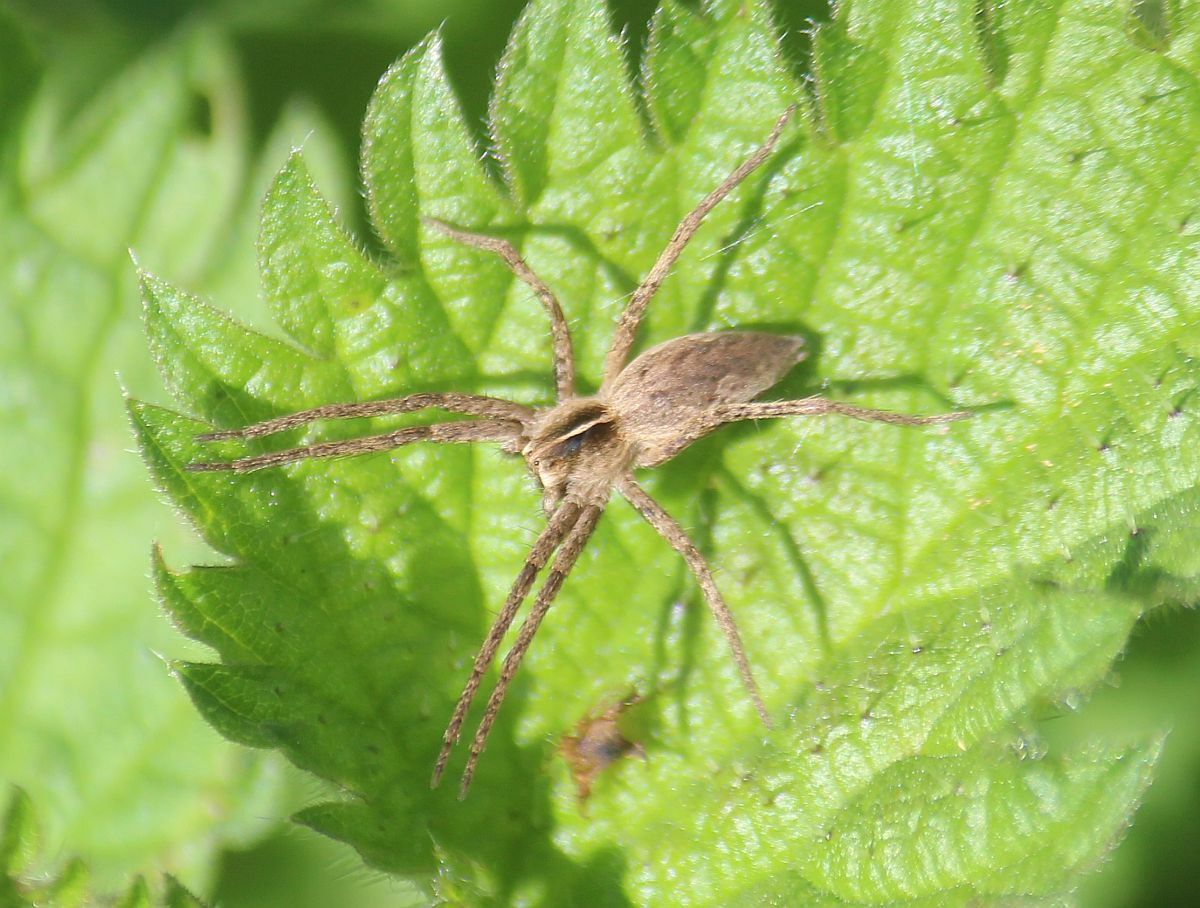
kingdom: Animalia
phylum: Arthropoda
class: Arachnida
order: Araneae
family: Pisauridae
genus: Pisaura
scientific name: Pisaura mirabilis
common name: Tent spider
